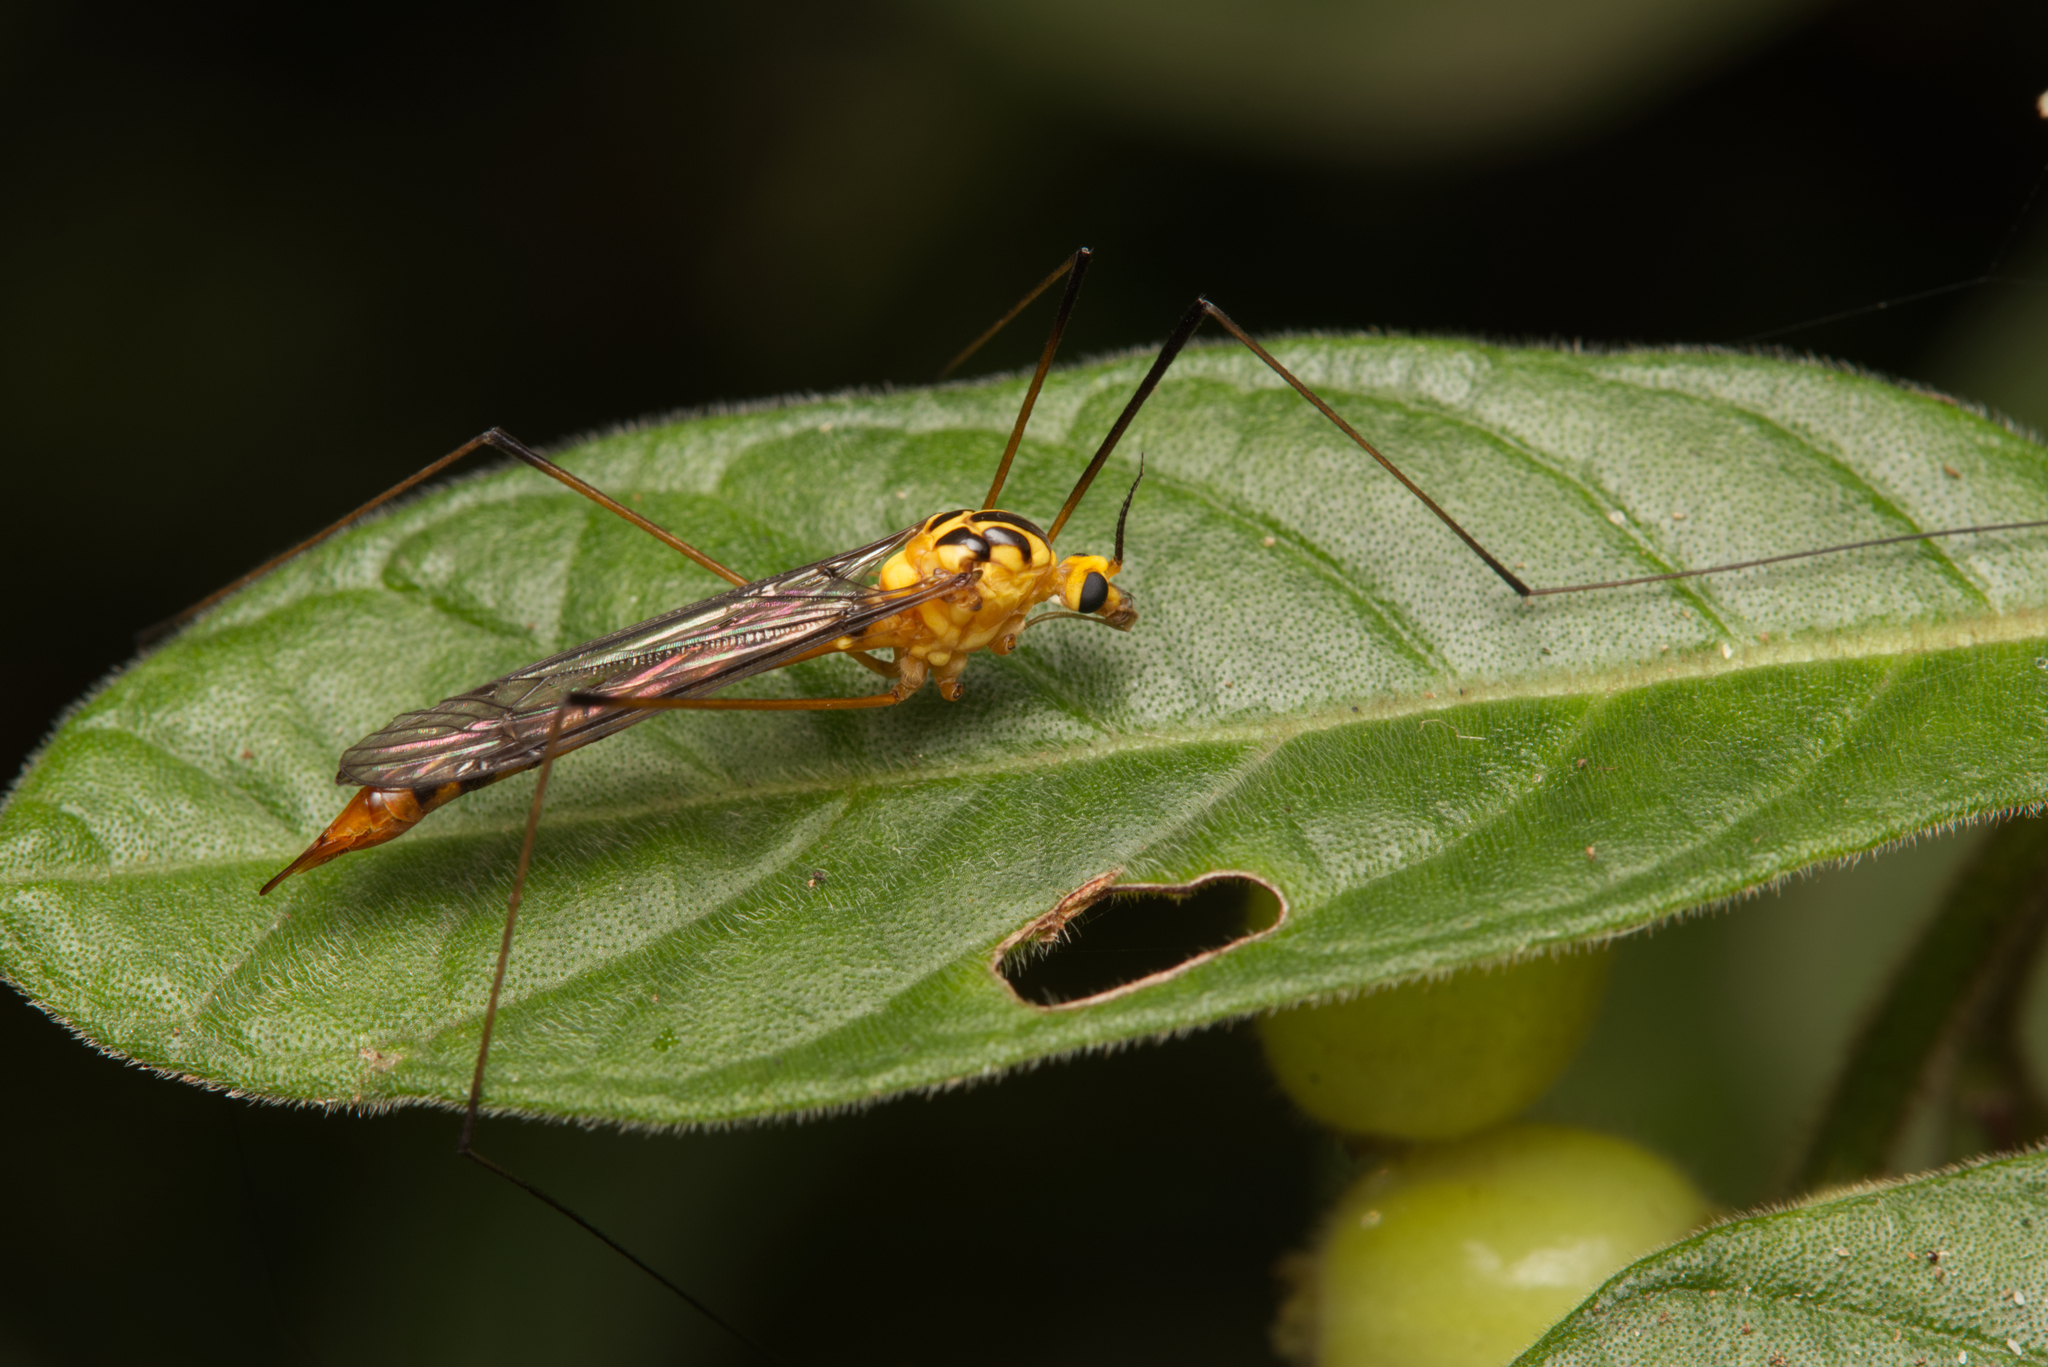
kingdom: Animalia
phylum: Arthropoda
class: Insecta
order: Diptera
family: Tipulidae
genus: Nephrotoma
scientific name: Nephrotoma australasiae
